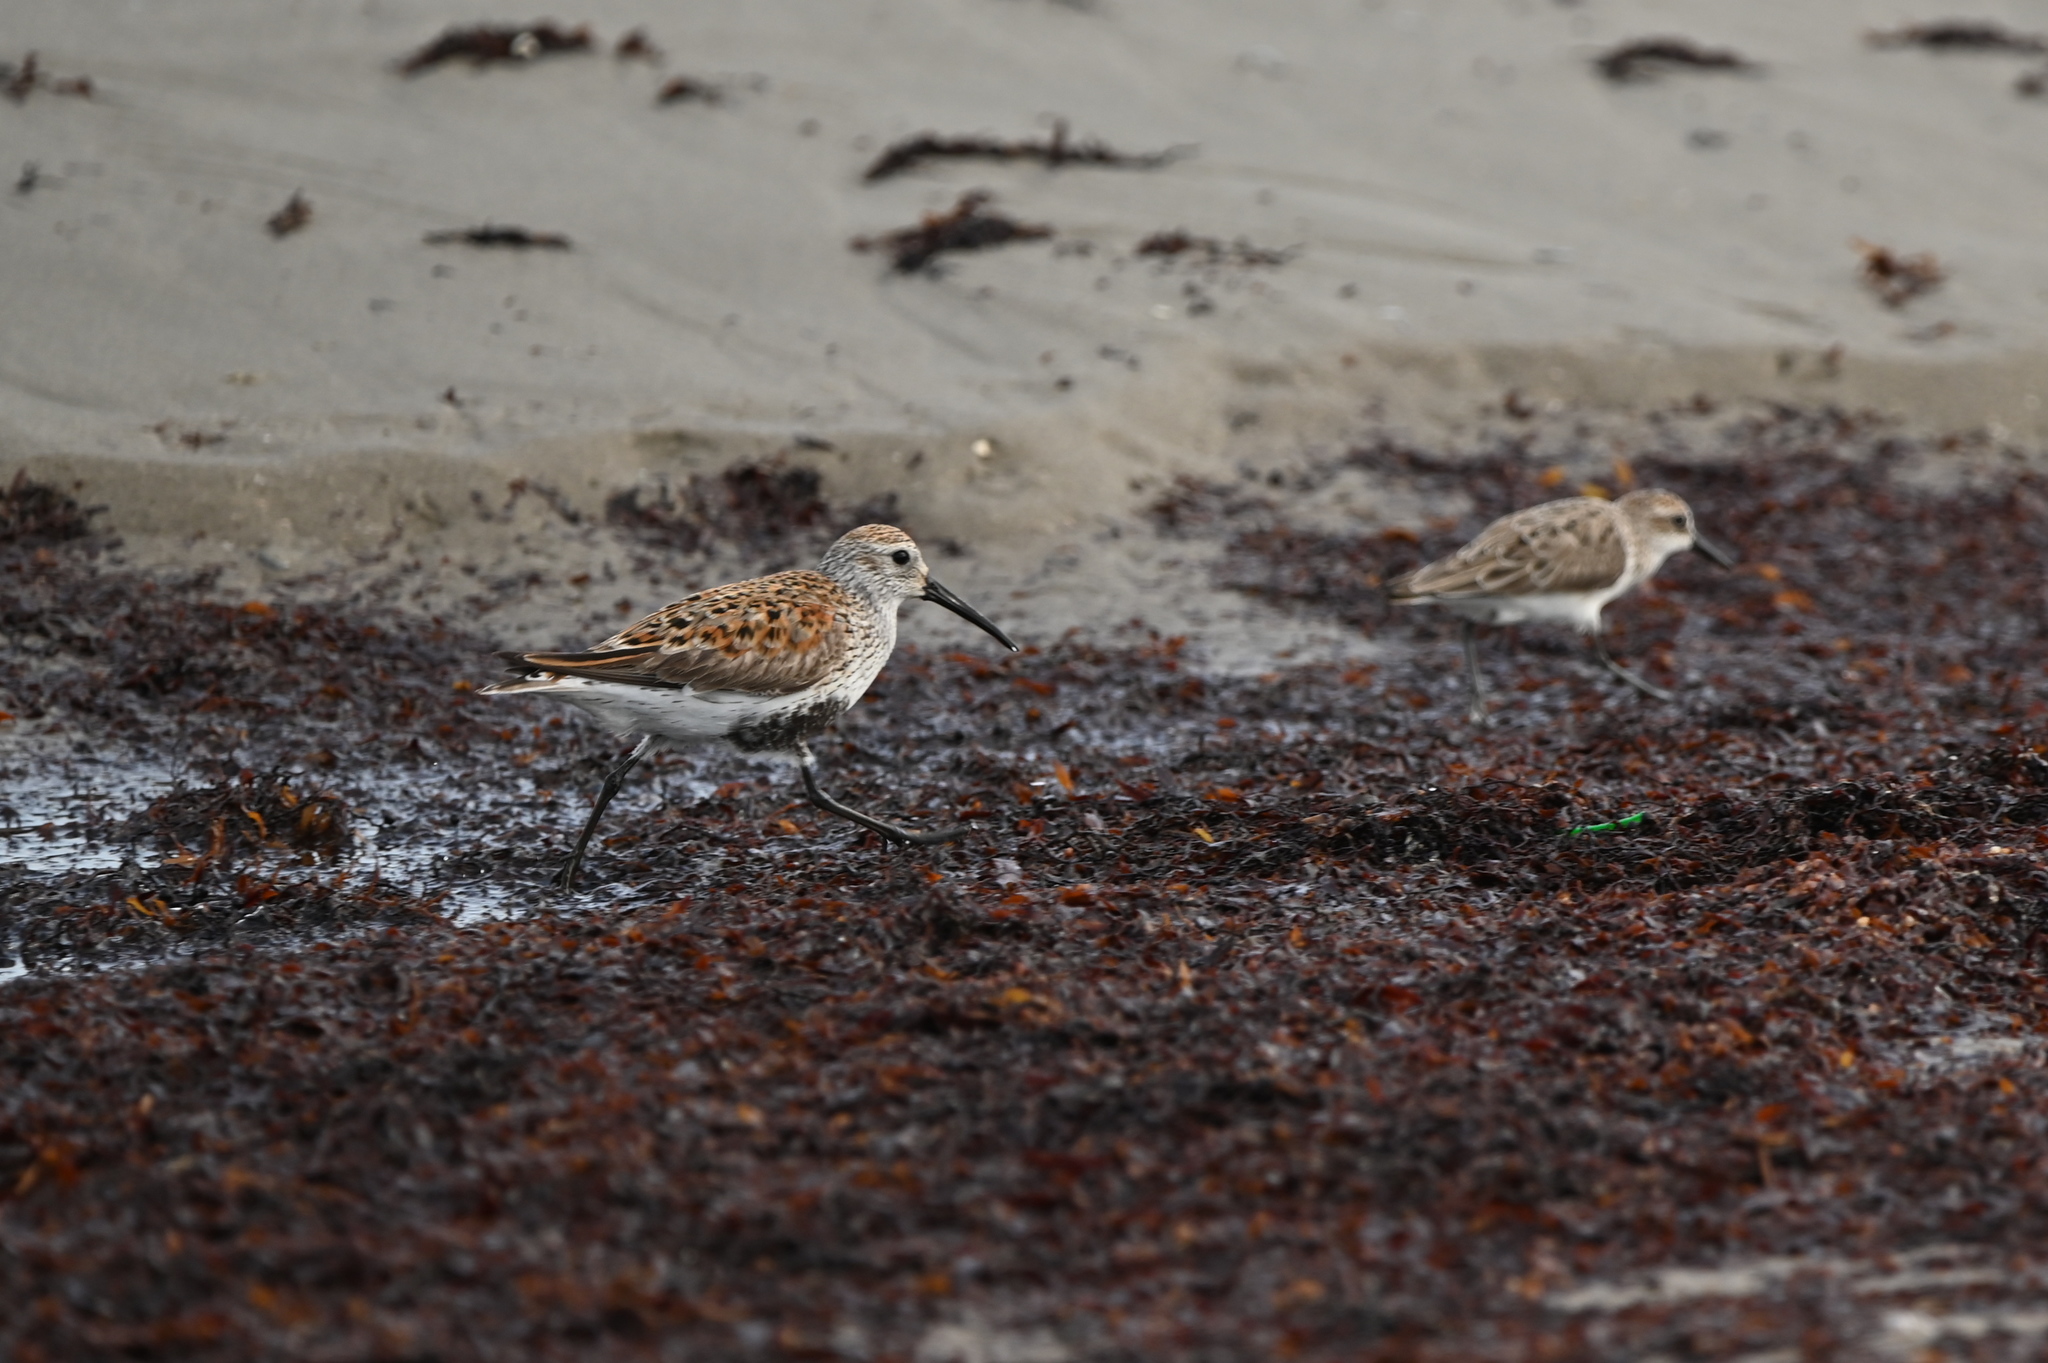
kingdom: Animalia
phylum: Chordata
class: Aves
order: Charadriiformes
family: Scolopacidae
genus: Calidris
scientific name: Calidris alpina
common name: Dunlin
